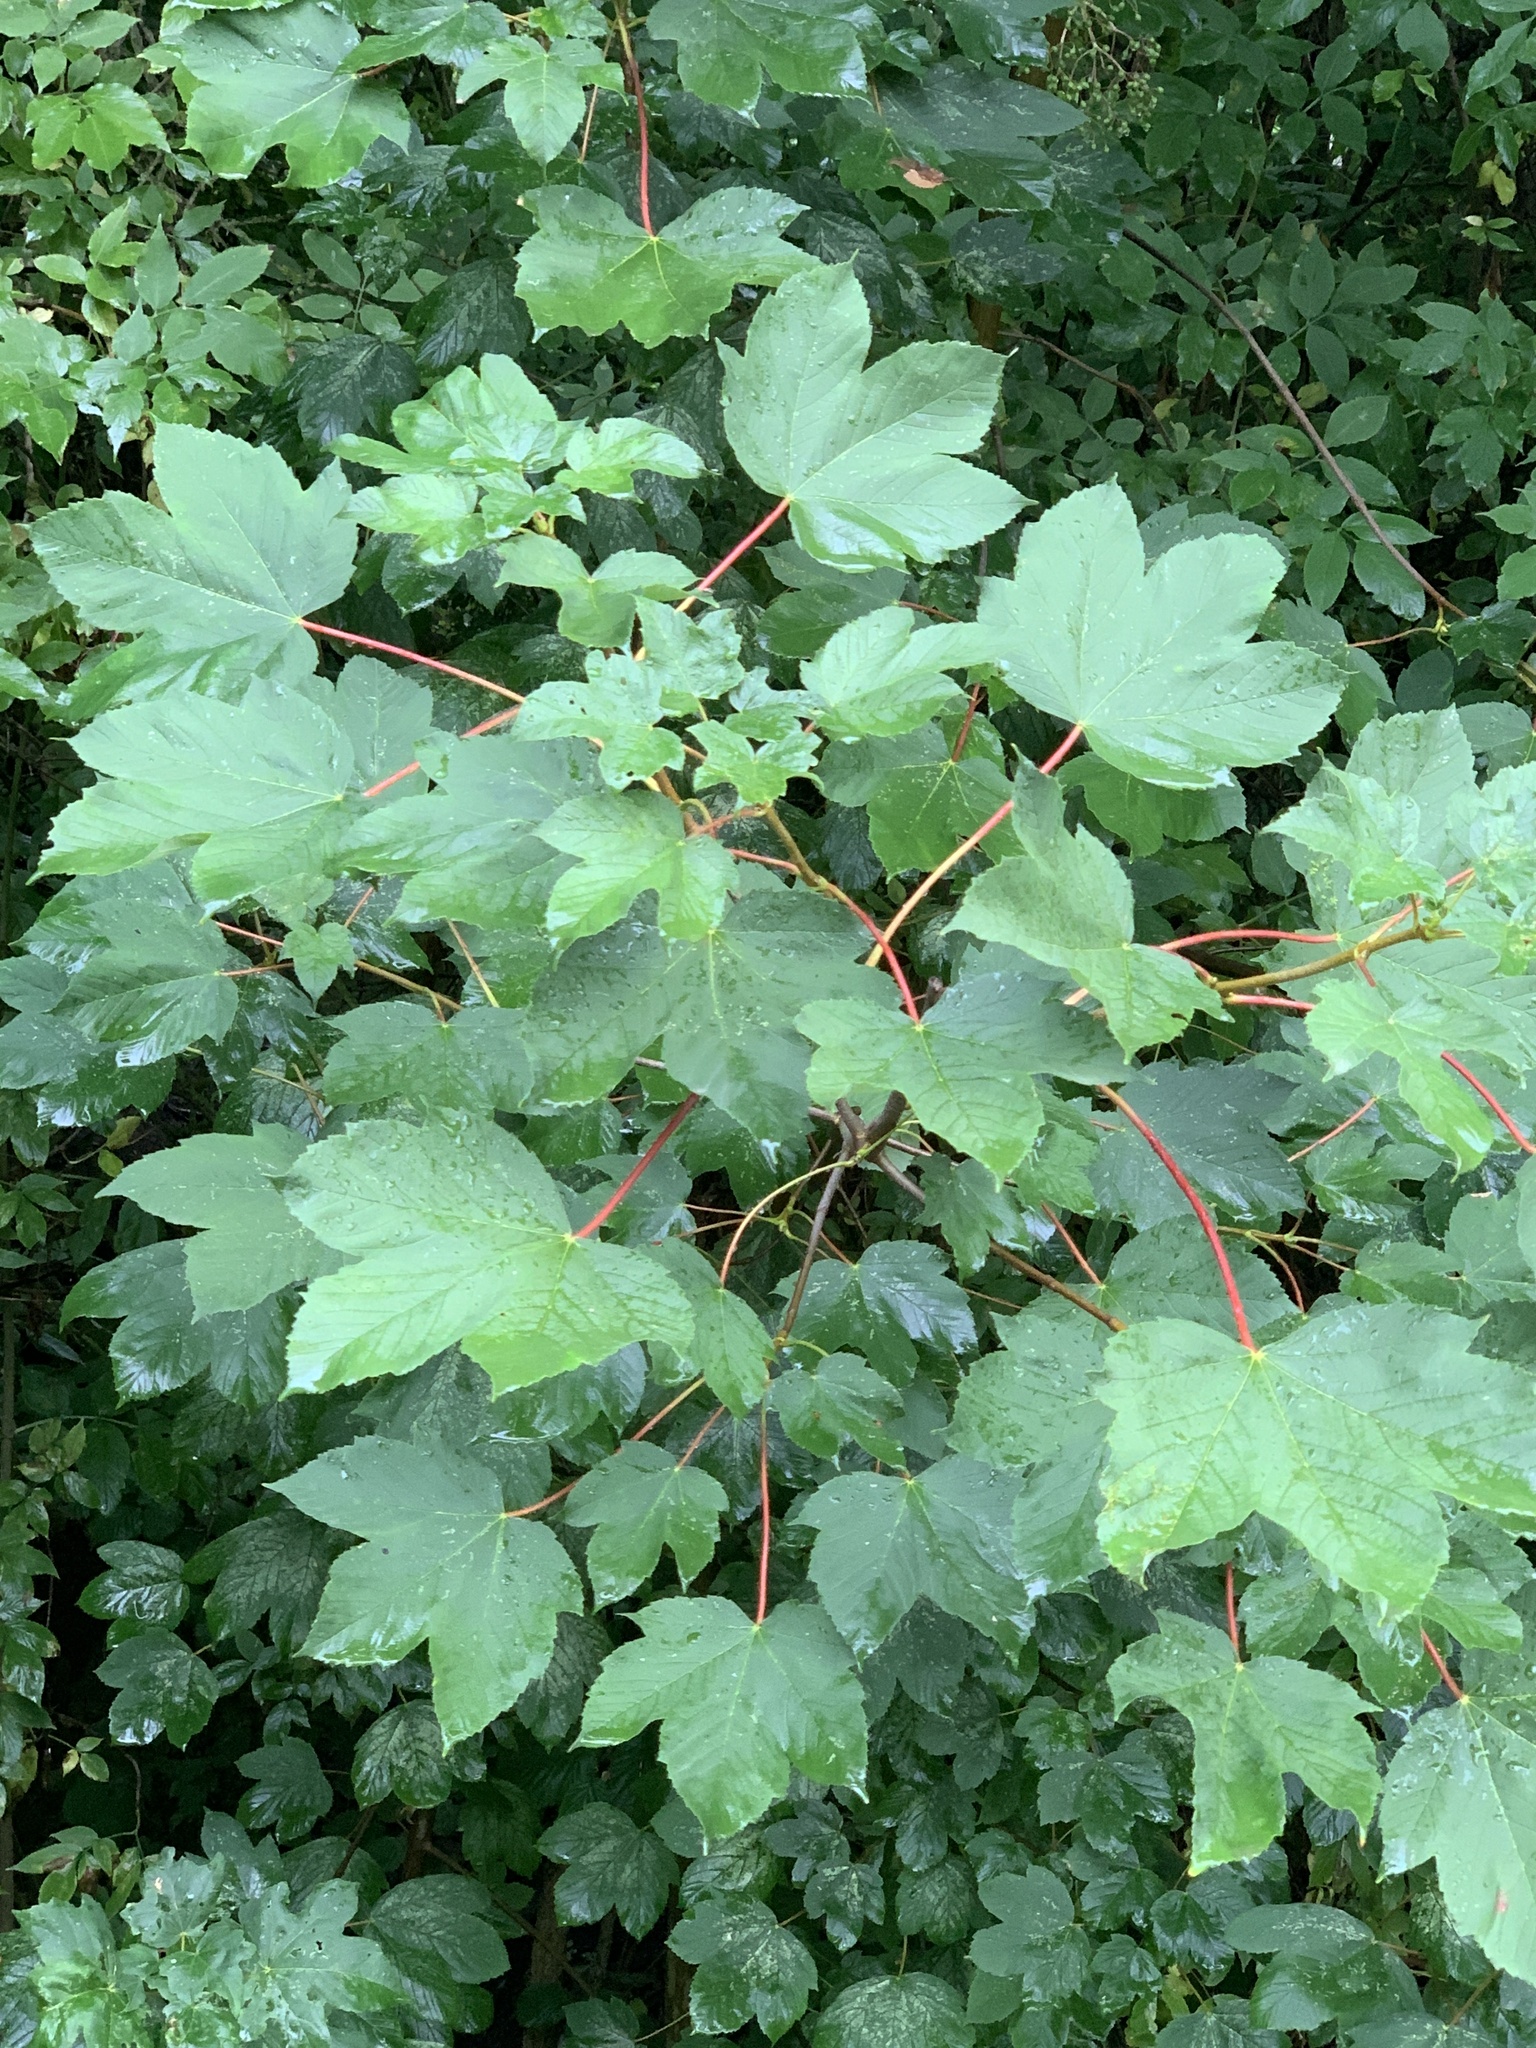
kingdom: Plantae
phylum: Tracheophyta
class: Magnoliopsida
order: Sapindales
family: Sapindaceae
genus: Acer
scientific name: Acer pseudoplatanus
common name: Sycamore
